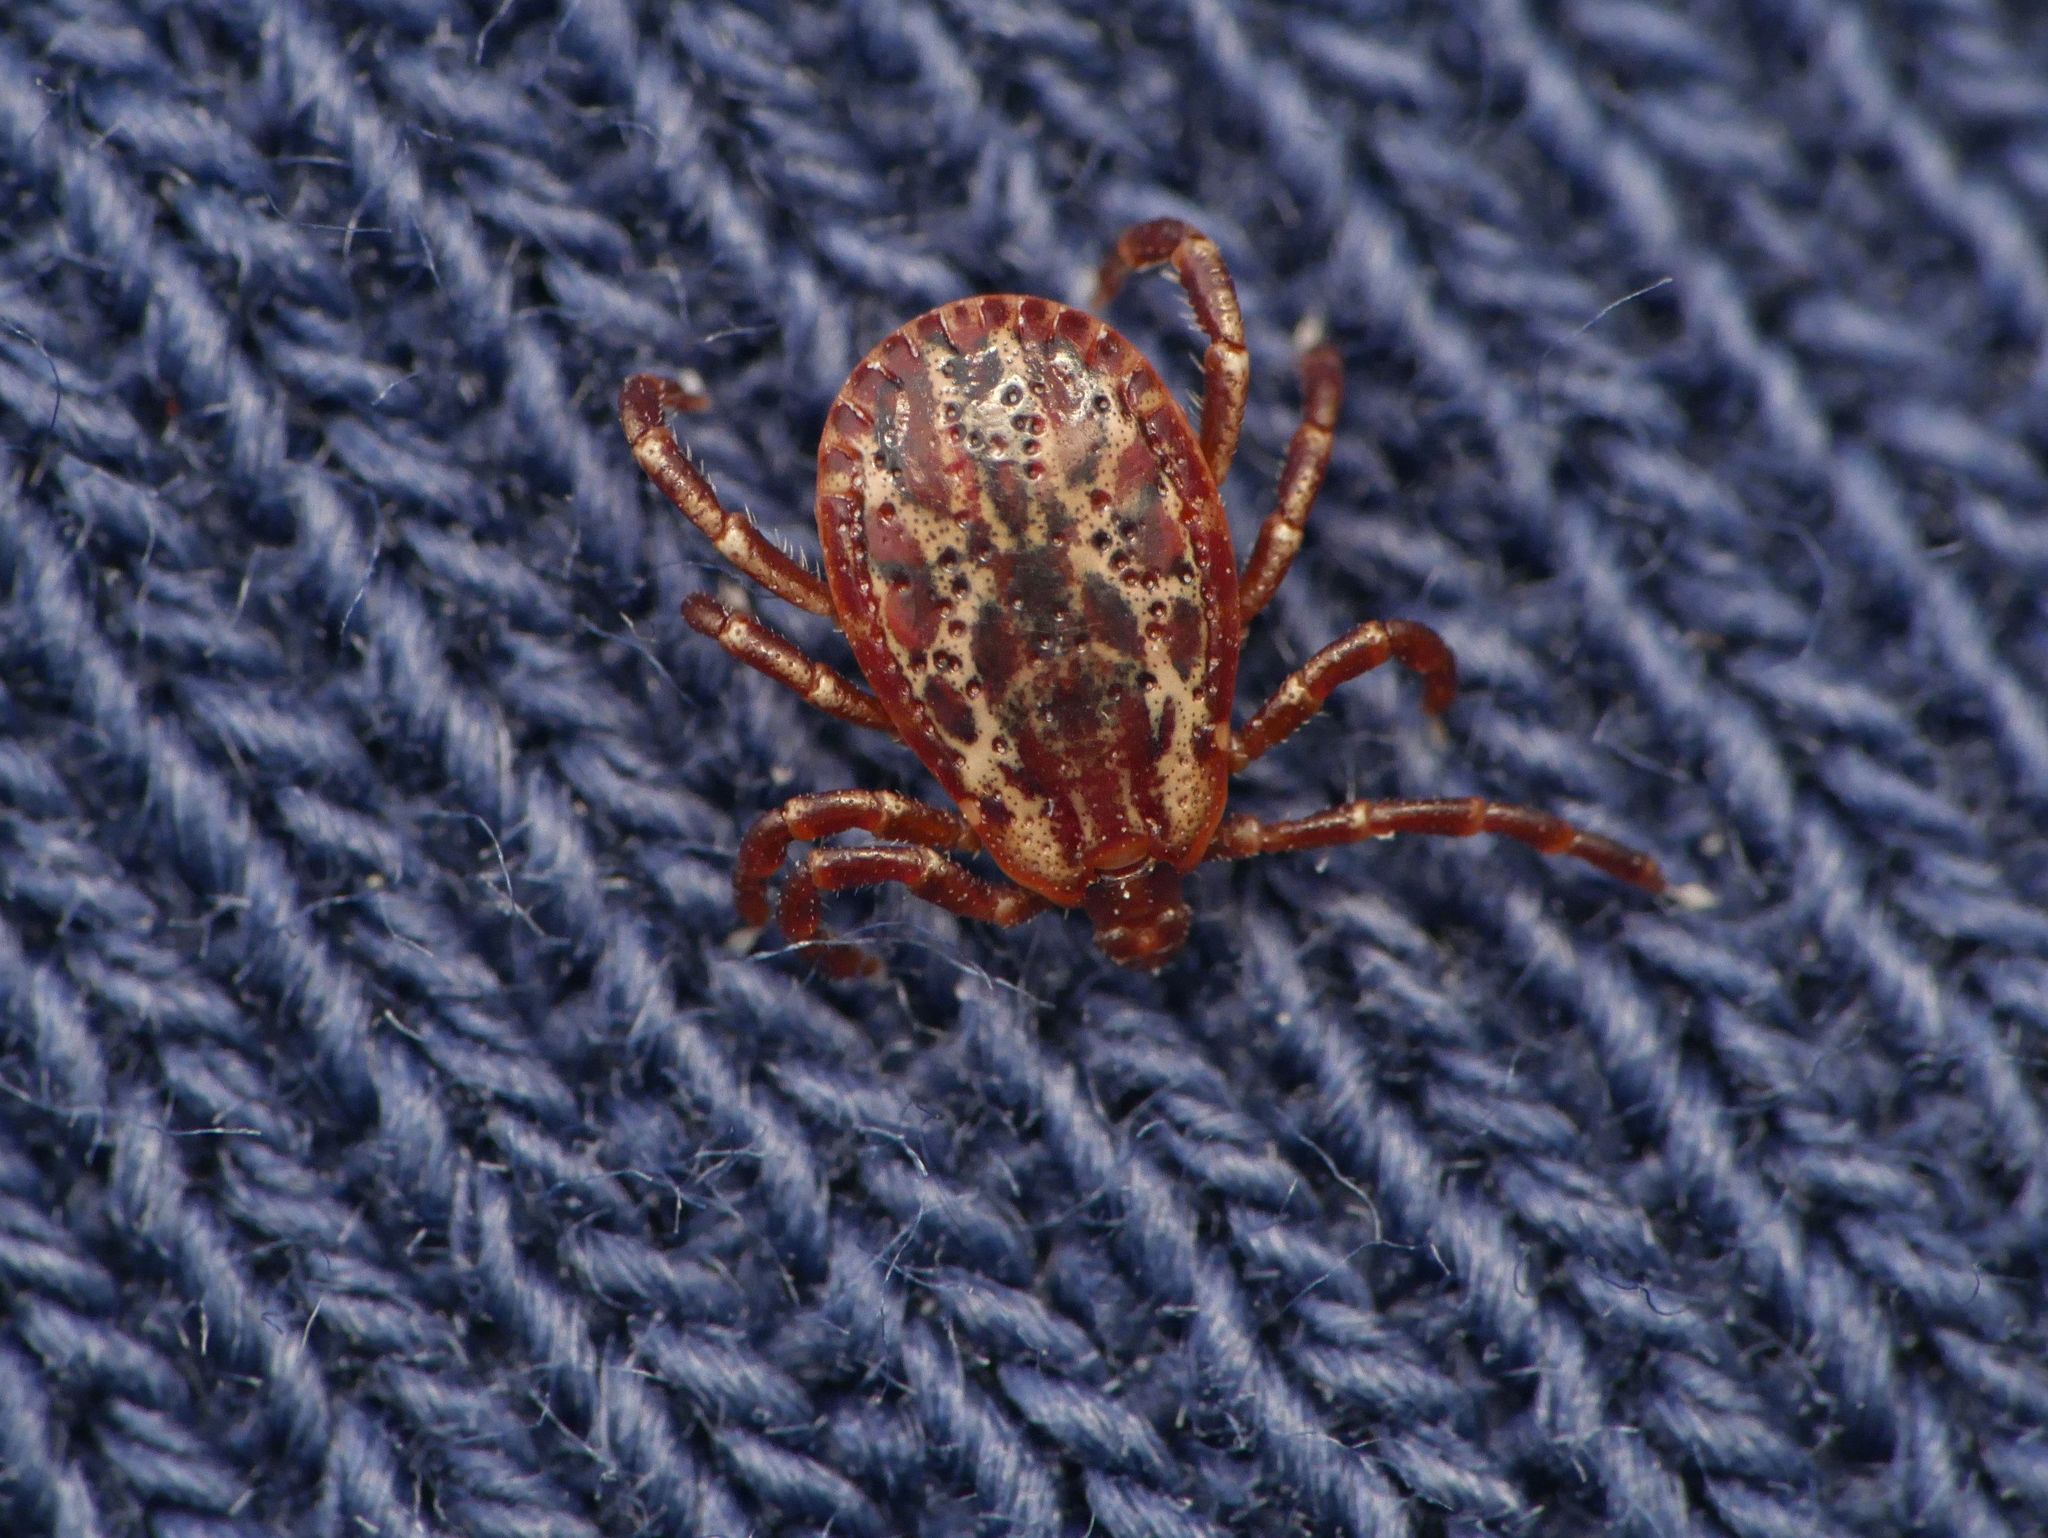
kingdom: Animalia
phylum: Arthropoda
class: Arachnida
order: Ixodida
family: Ixodidae
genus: Dermacentor
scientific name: Dermacentor variabilis
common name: American dog tick
